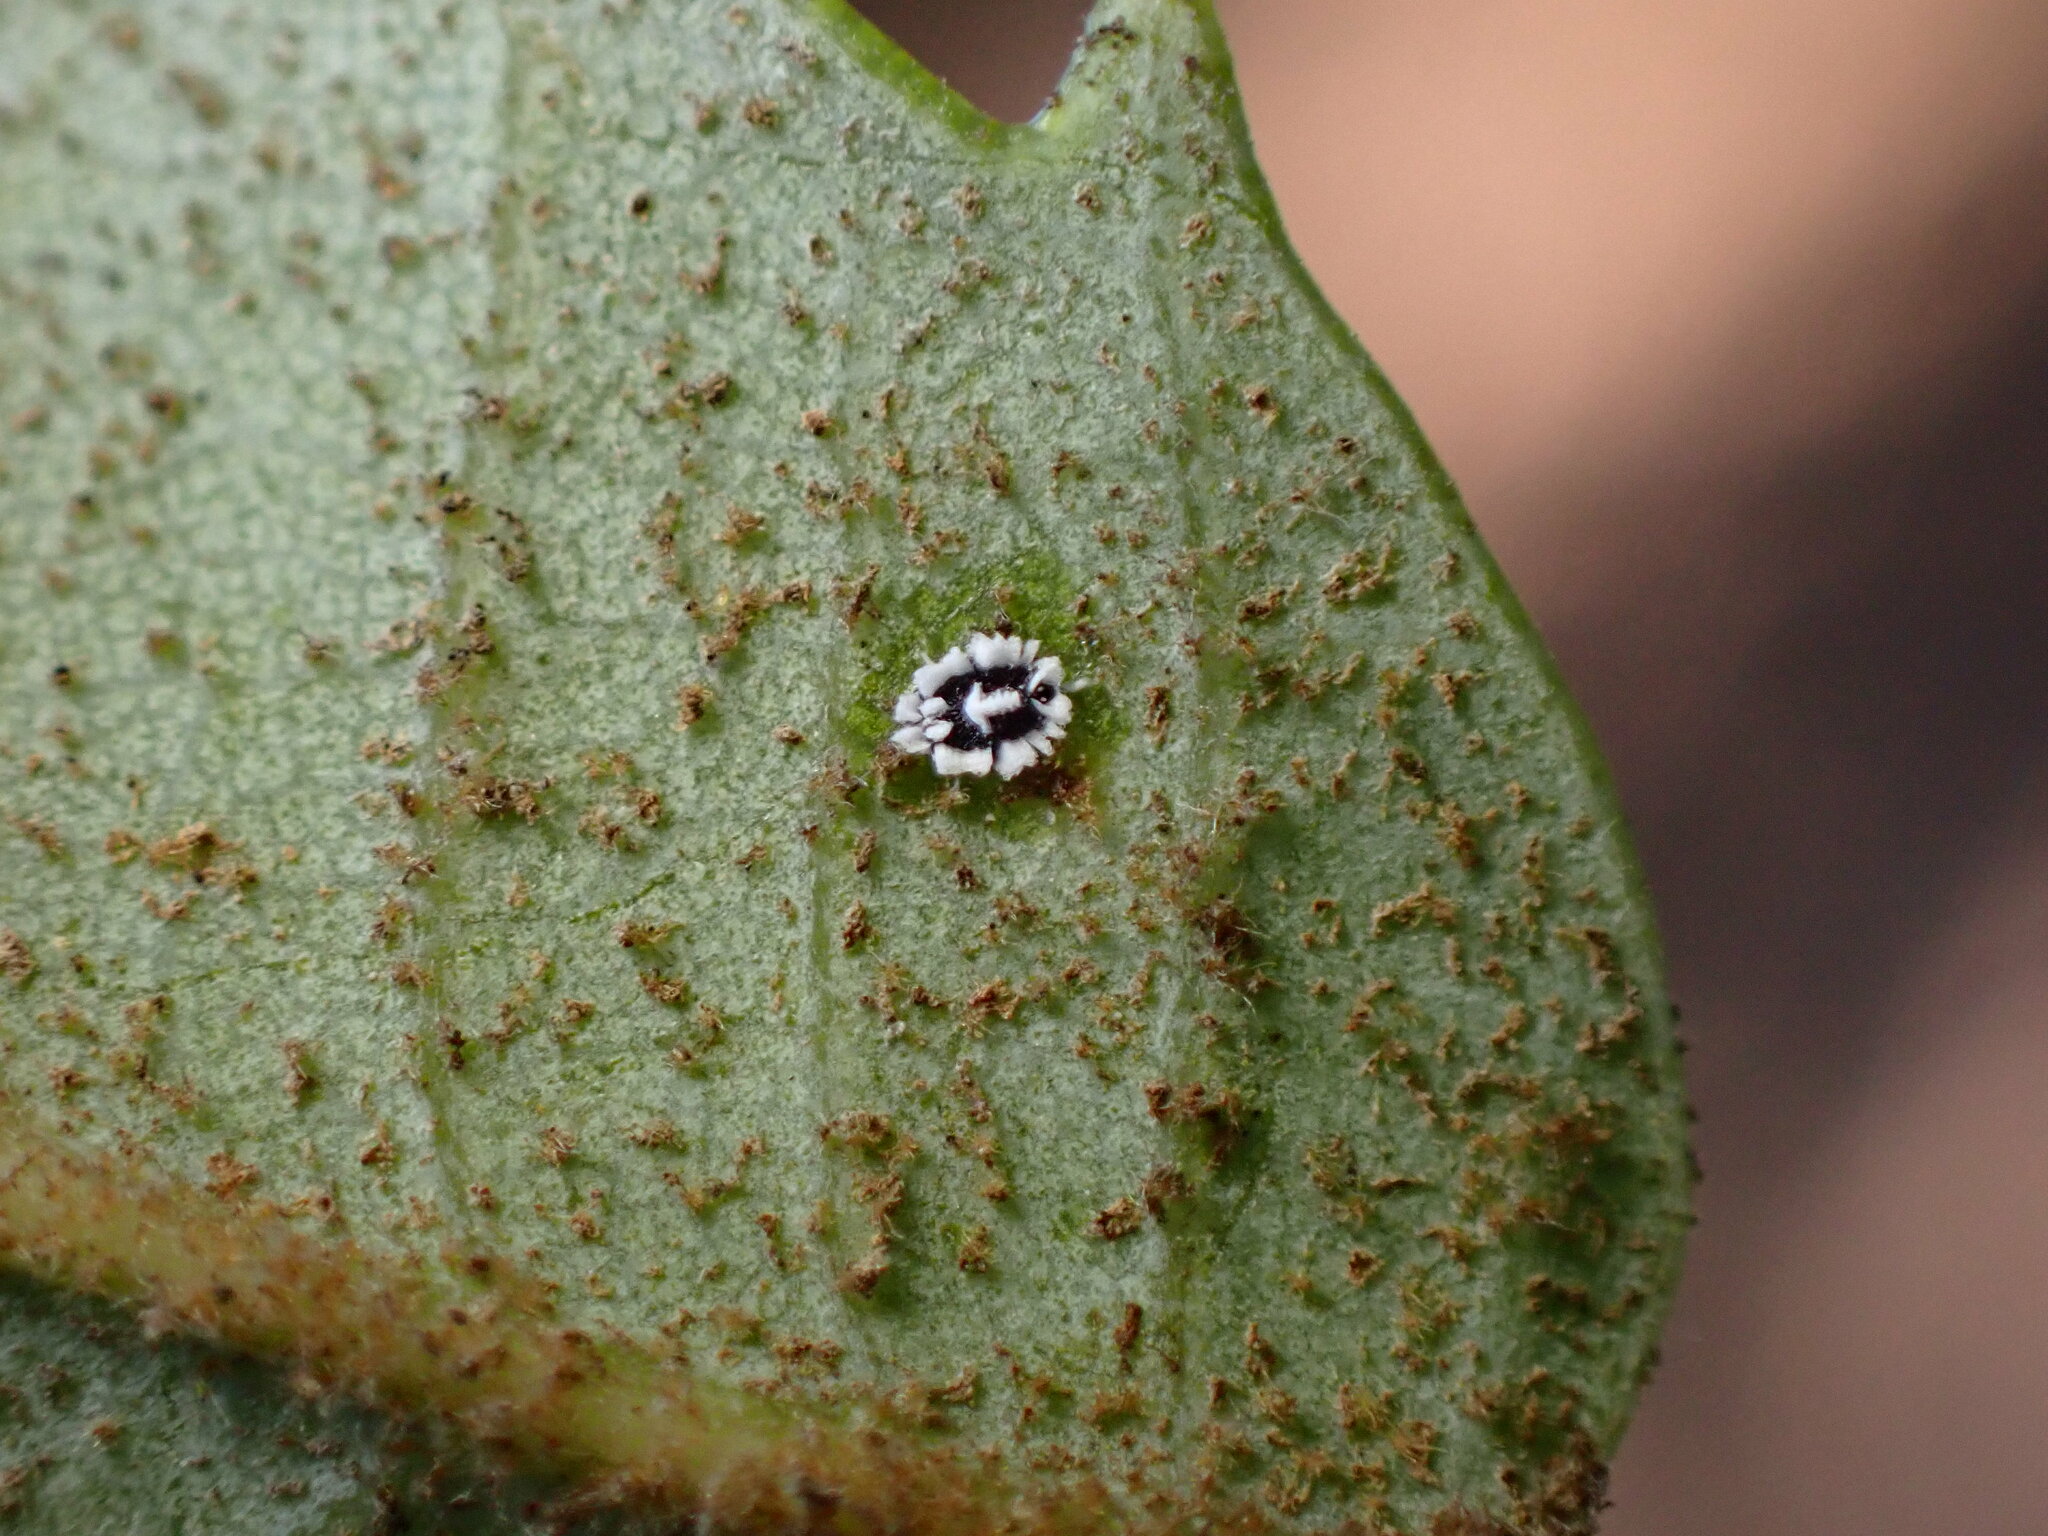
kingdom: Animalia
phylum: Arthropoda
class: Insecta
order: Hemiptera
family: Aleyrodidae
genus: Aleuroplatus
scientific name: Aleuroplatus coronata
